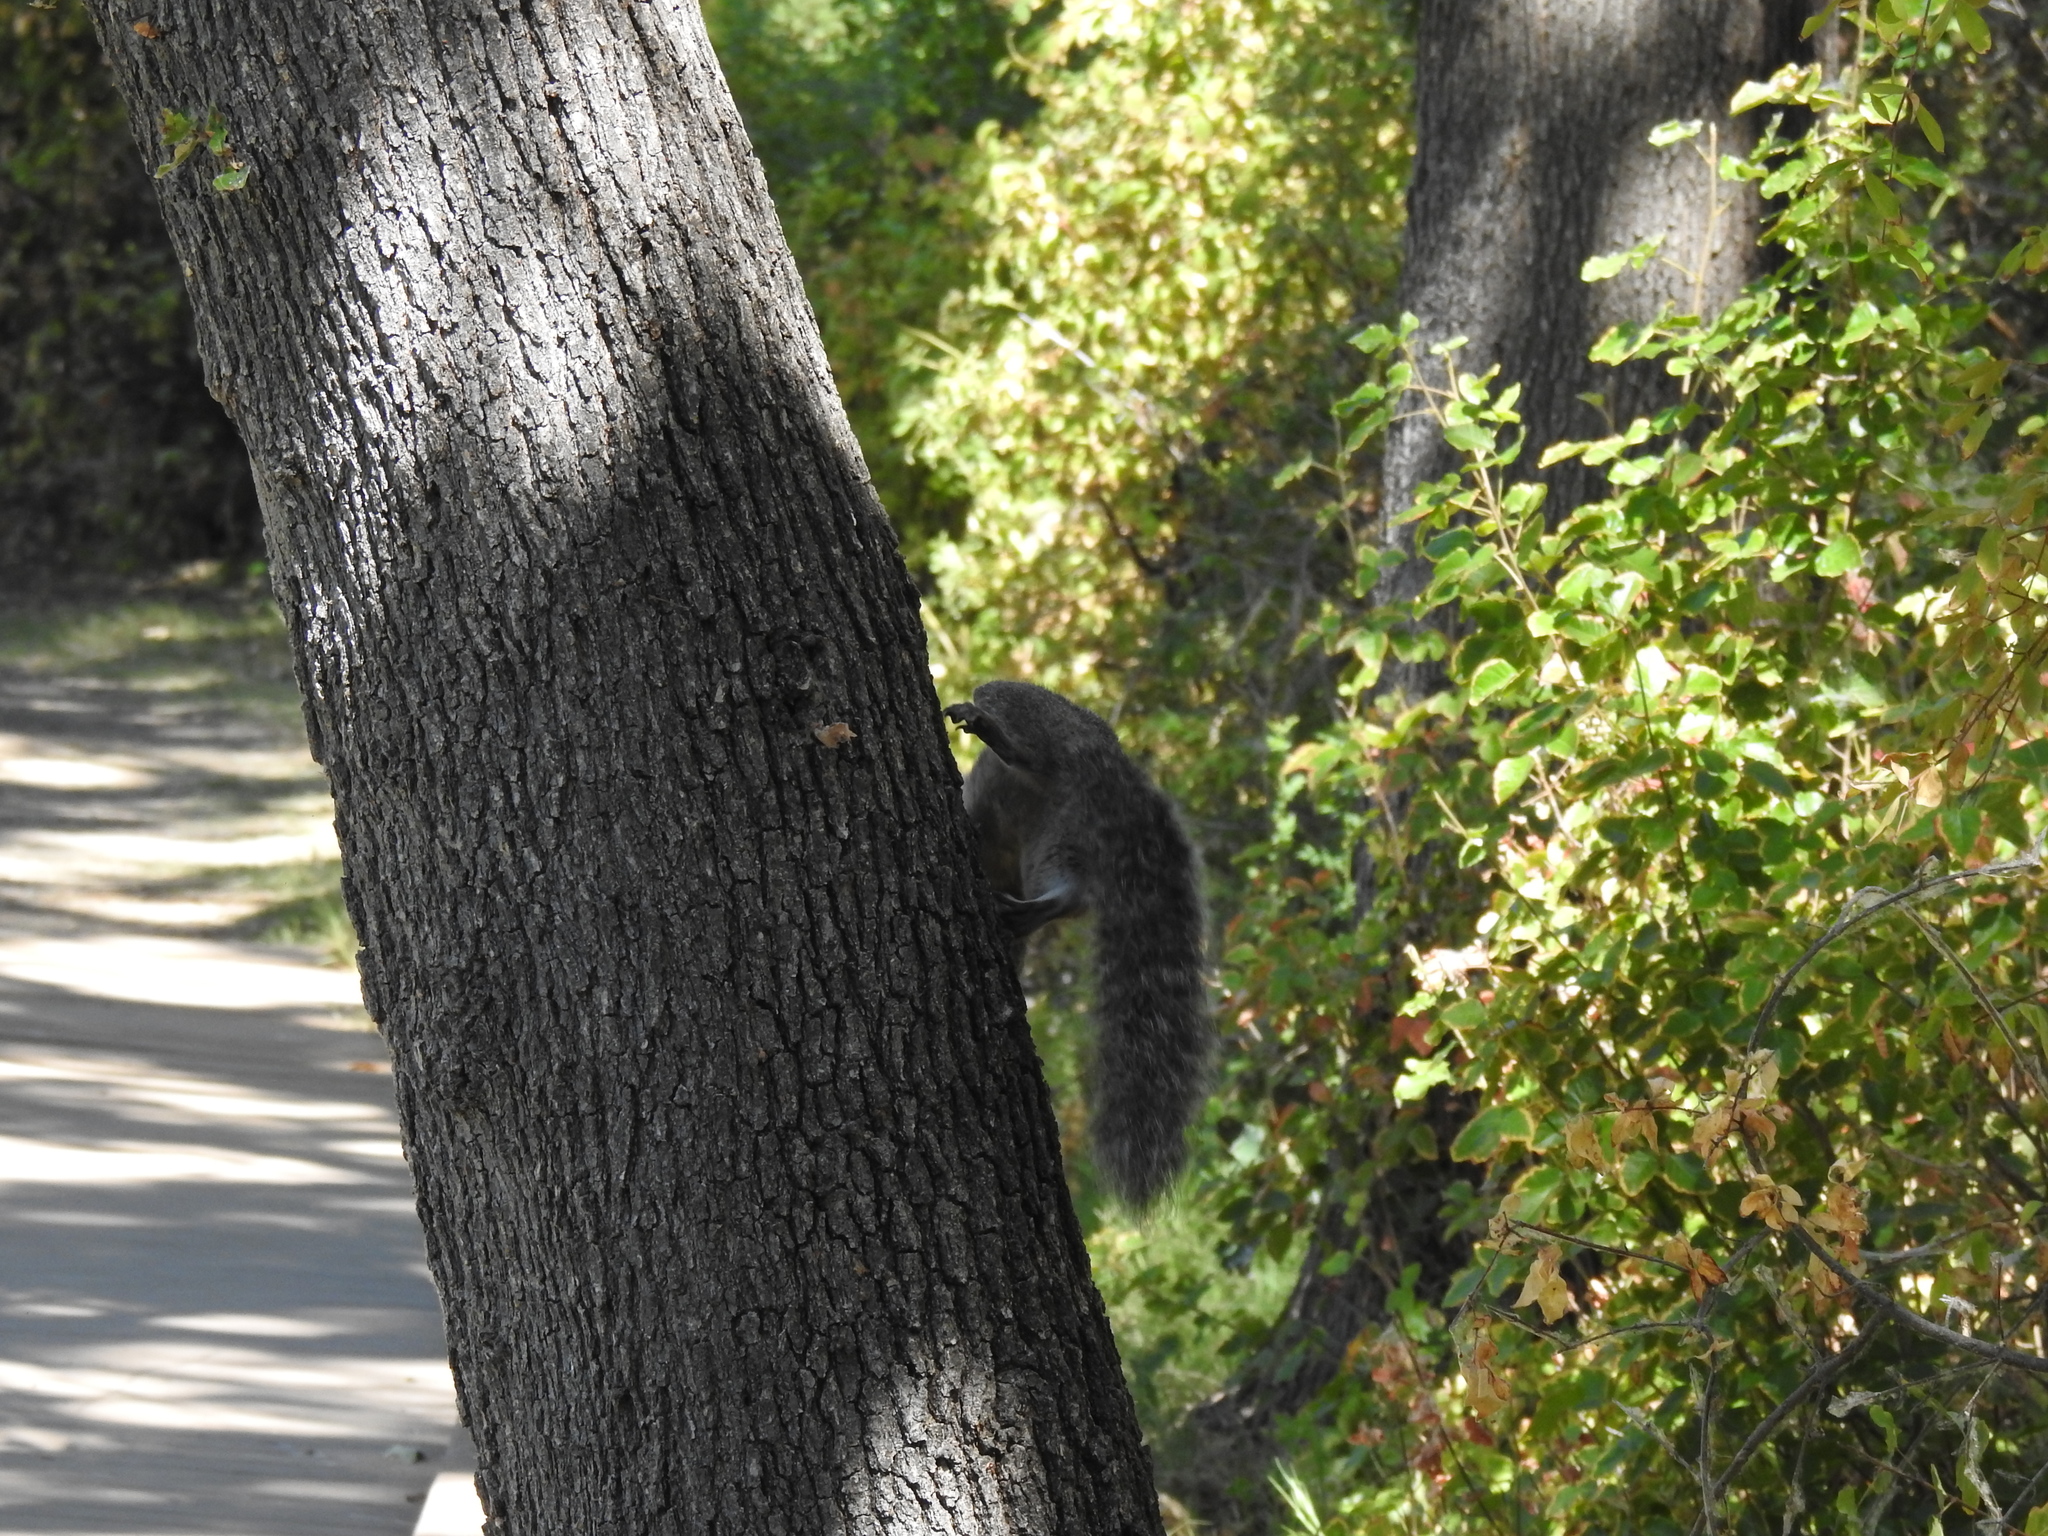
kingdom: Animalia
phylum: Chordata
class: Mammalia
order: Rodentia
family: Sciuridae
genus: Sciurus
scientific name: Sciurus griseus
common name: Western gray squirrel
